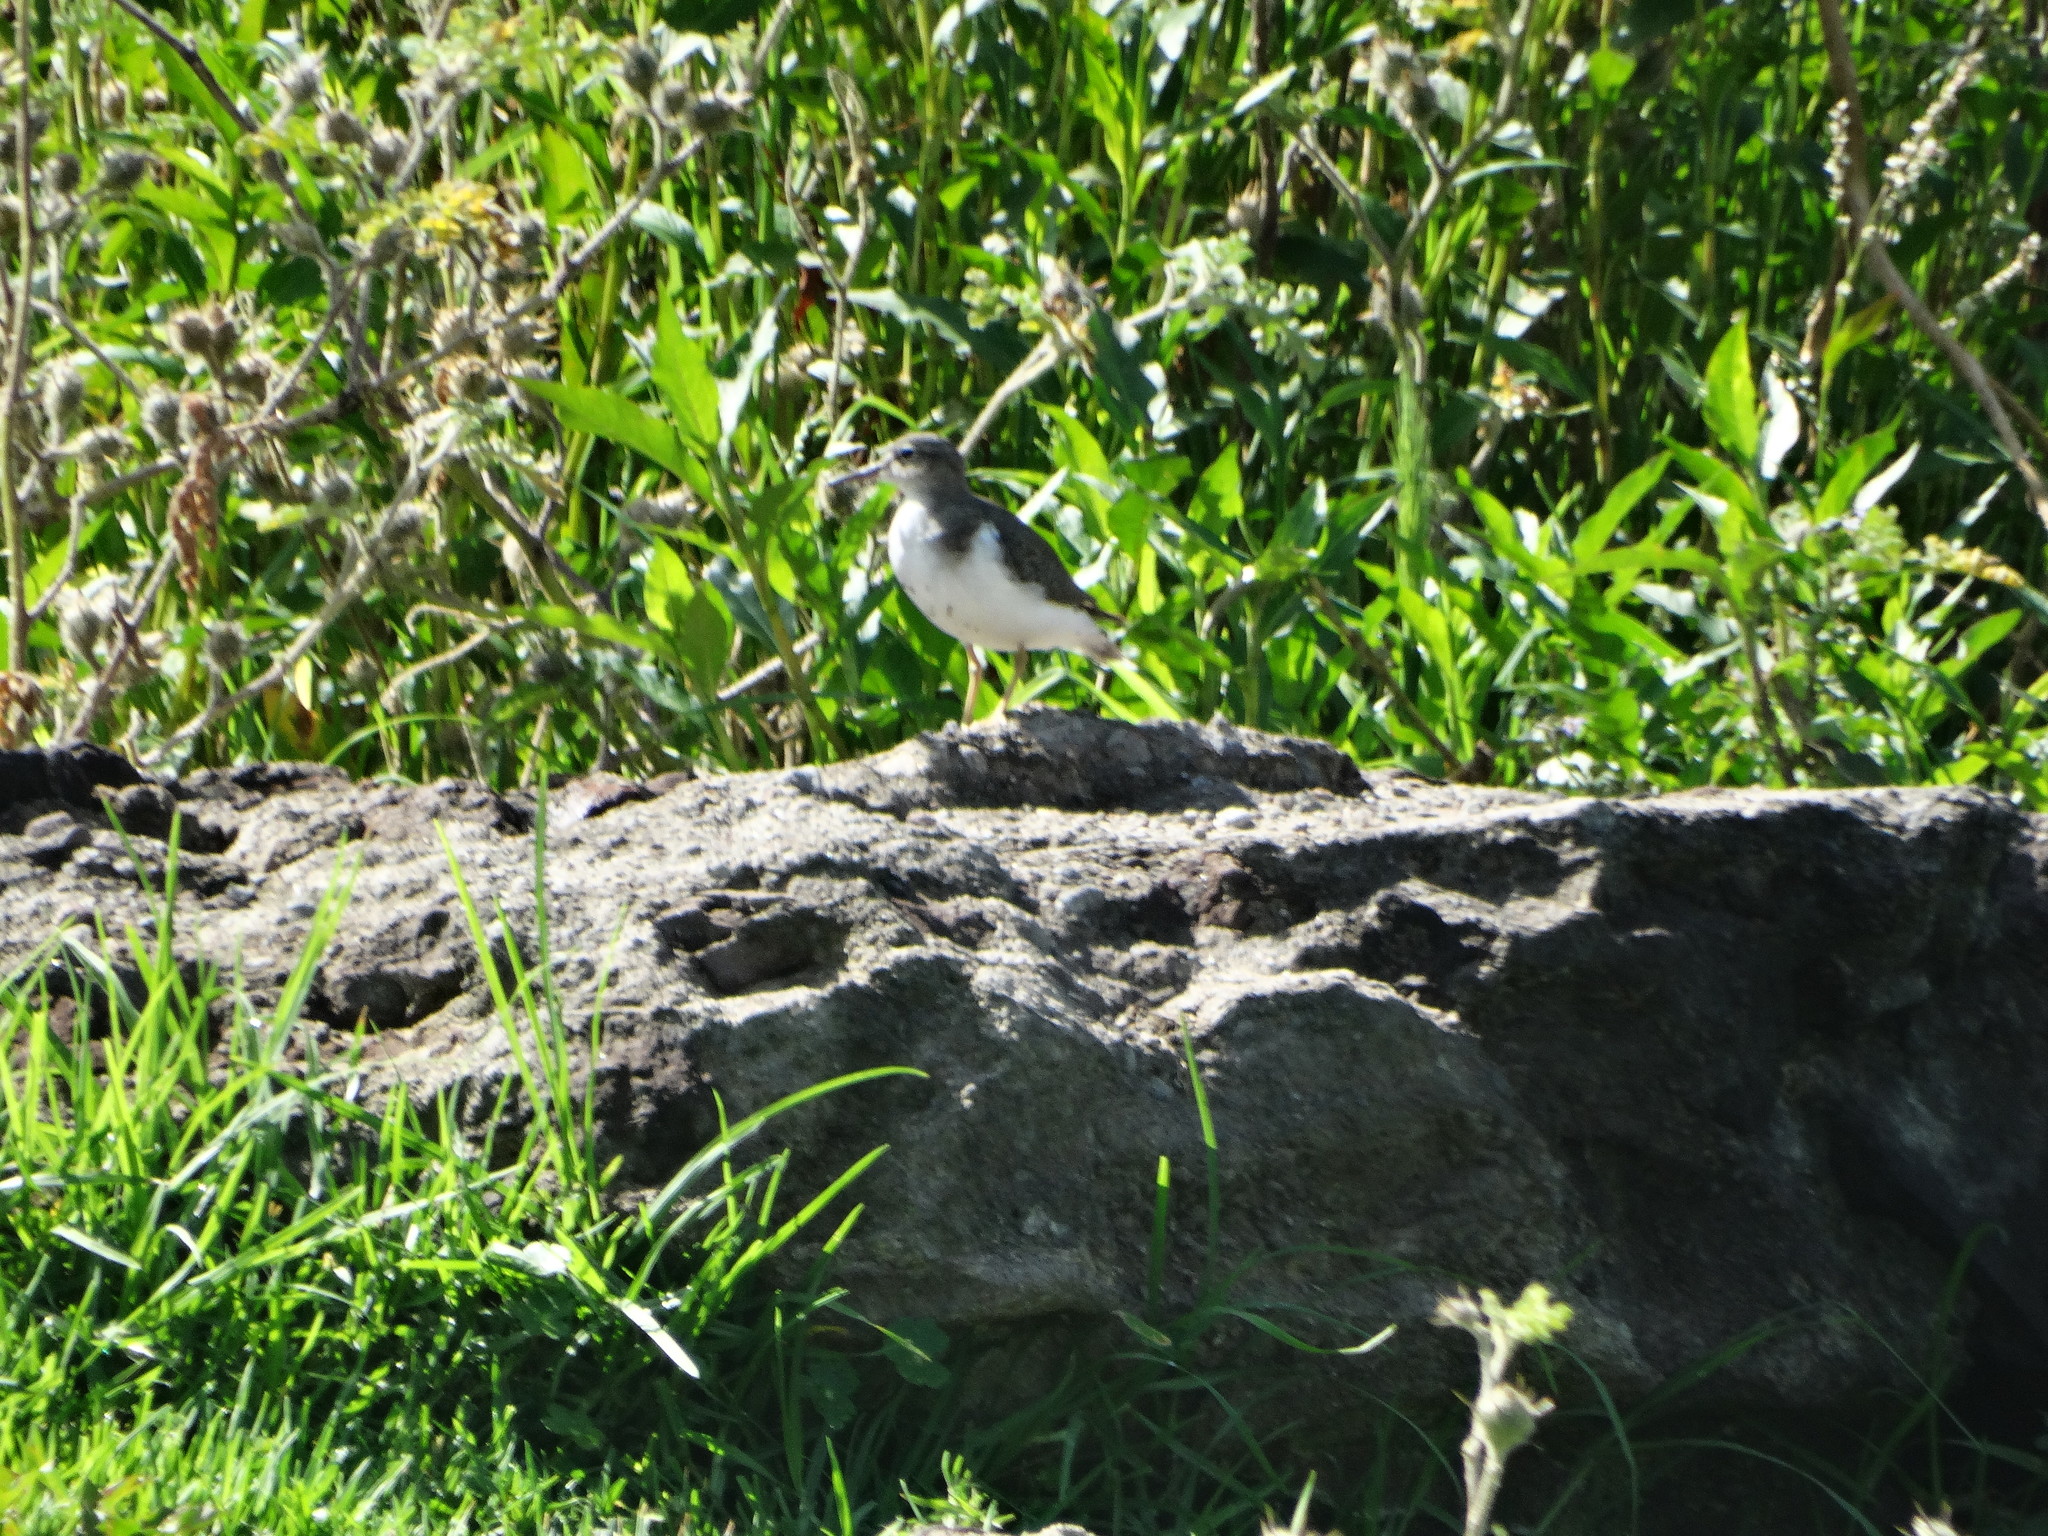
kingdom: Animalia
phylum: Chordata
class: Aves
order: Charadriiformes
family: Scolopacidae
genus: Actitis
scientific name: Actitis macularius
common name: Spotted sandpiper
